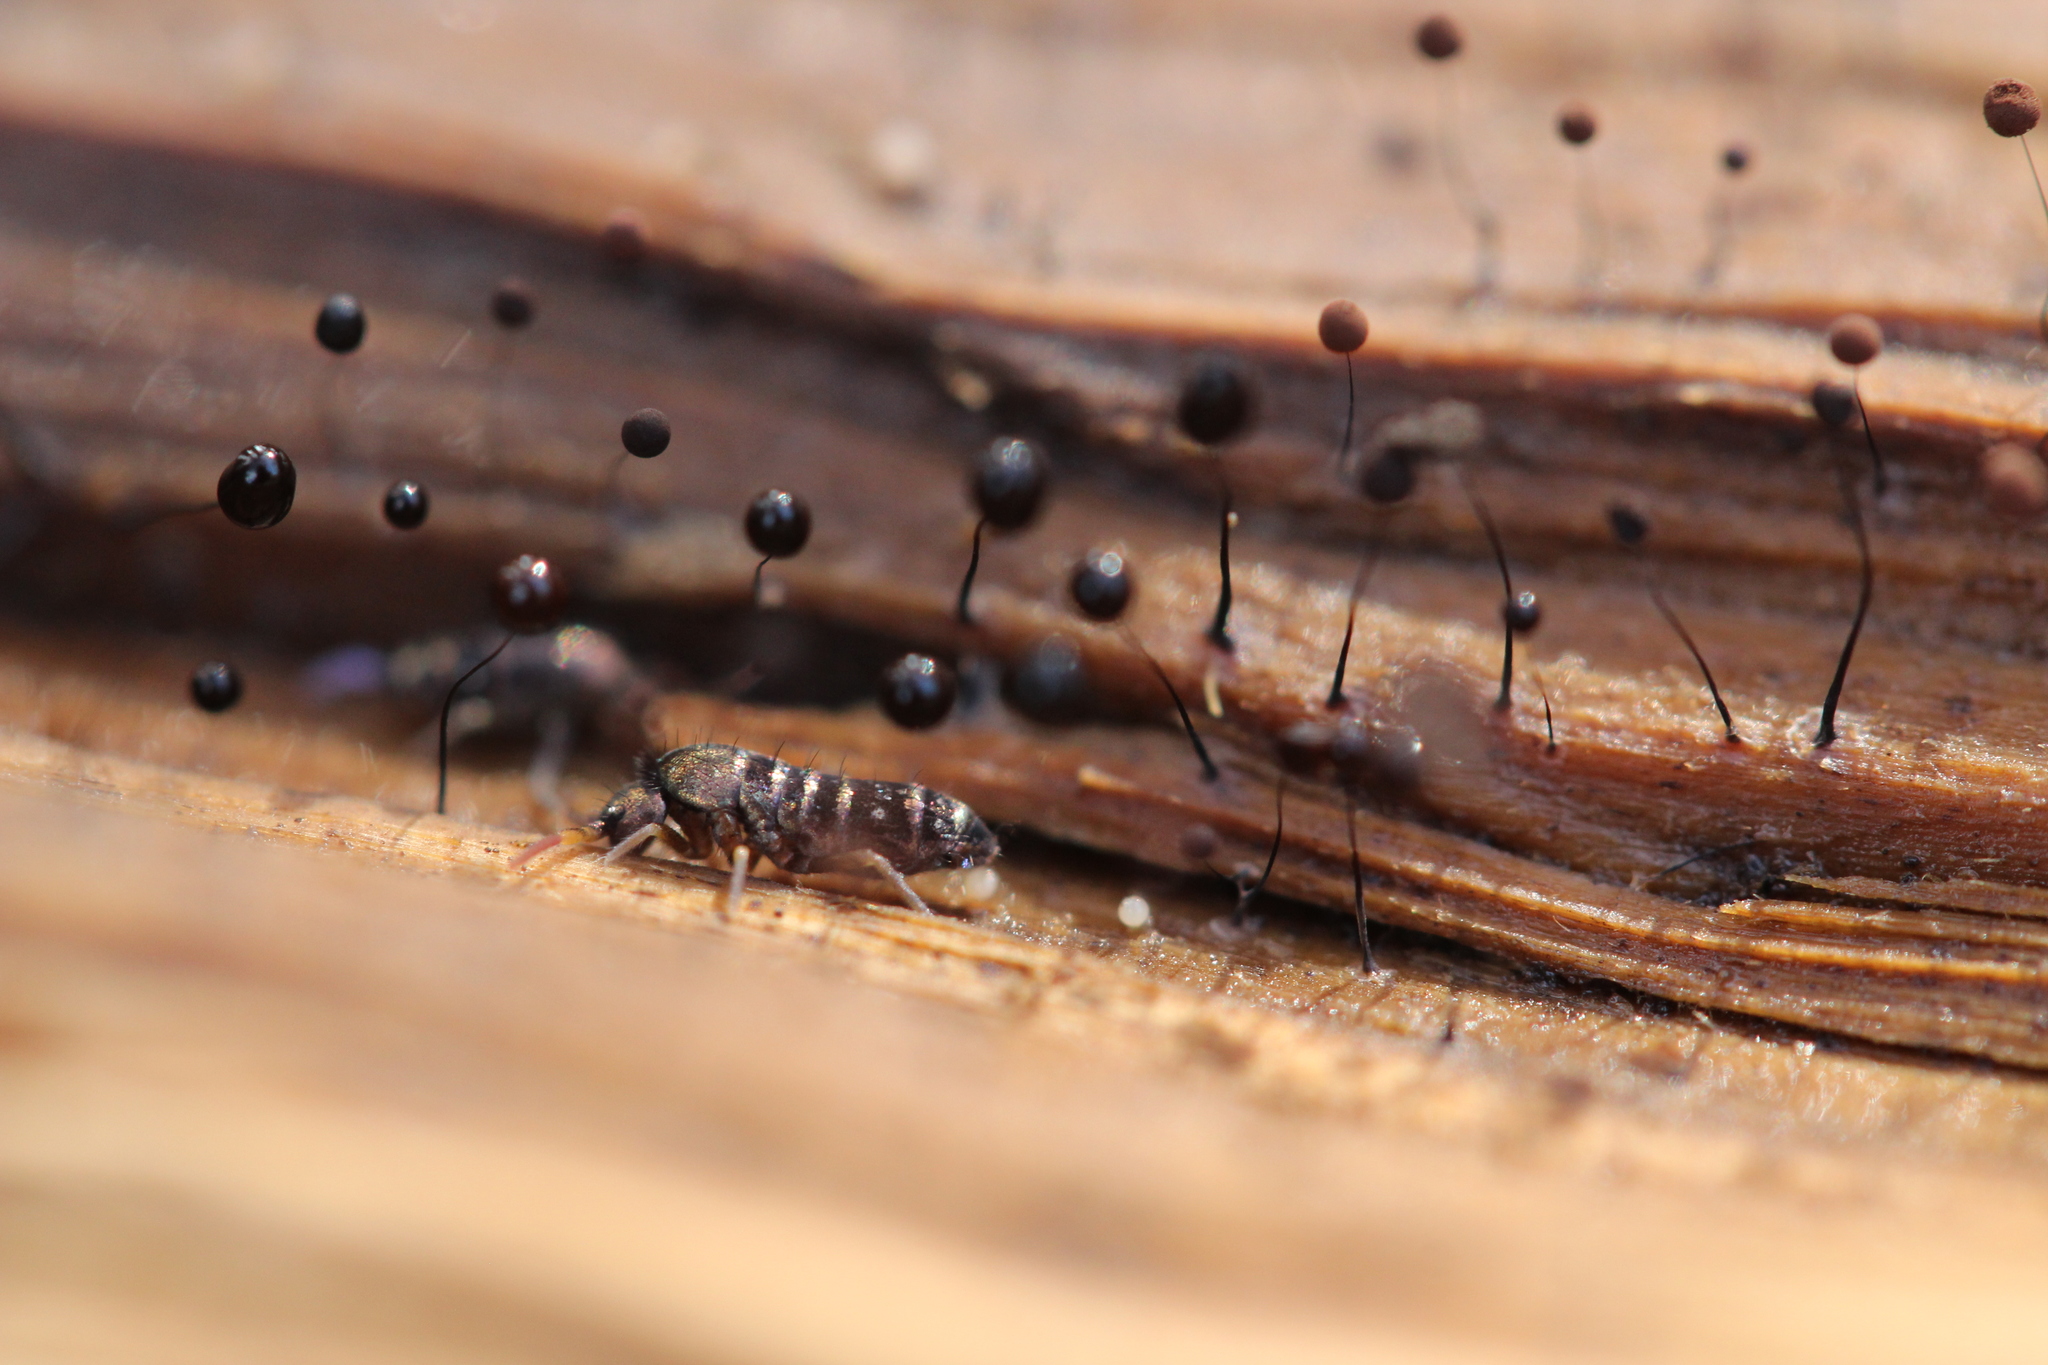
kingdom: Animalia
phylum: Arthropoda
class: Collembola
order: Entomobryomorpha
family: Tomoceridae
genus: Tomocerus
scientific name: Tomocerus vulgaris
